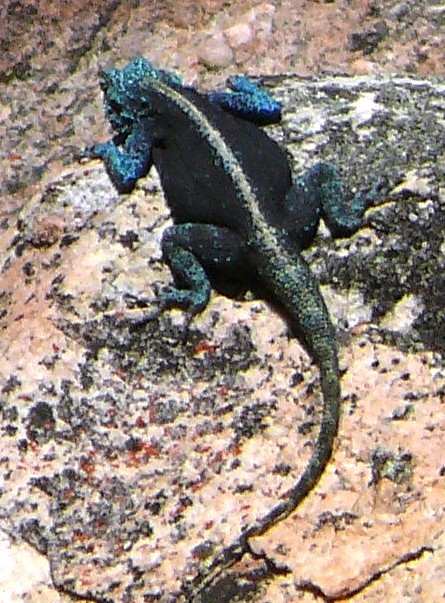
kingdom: Animalia
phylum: Chordata
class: Squamata
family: Agamidae
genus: Agama
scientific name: Agama atra
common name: Southern african rock agama
